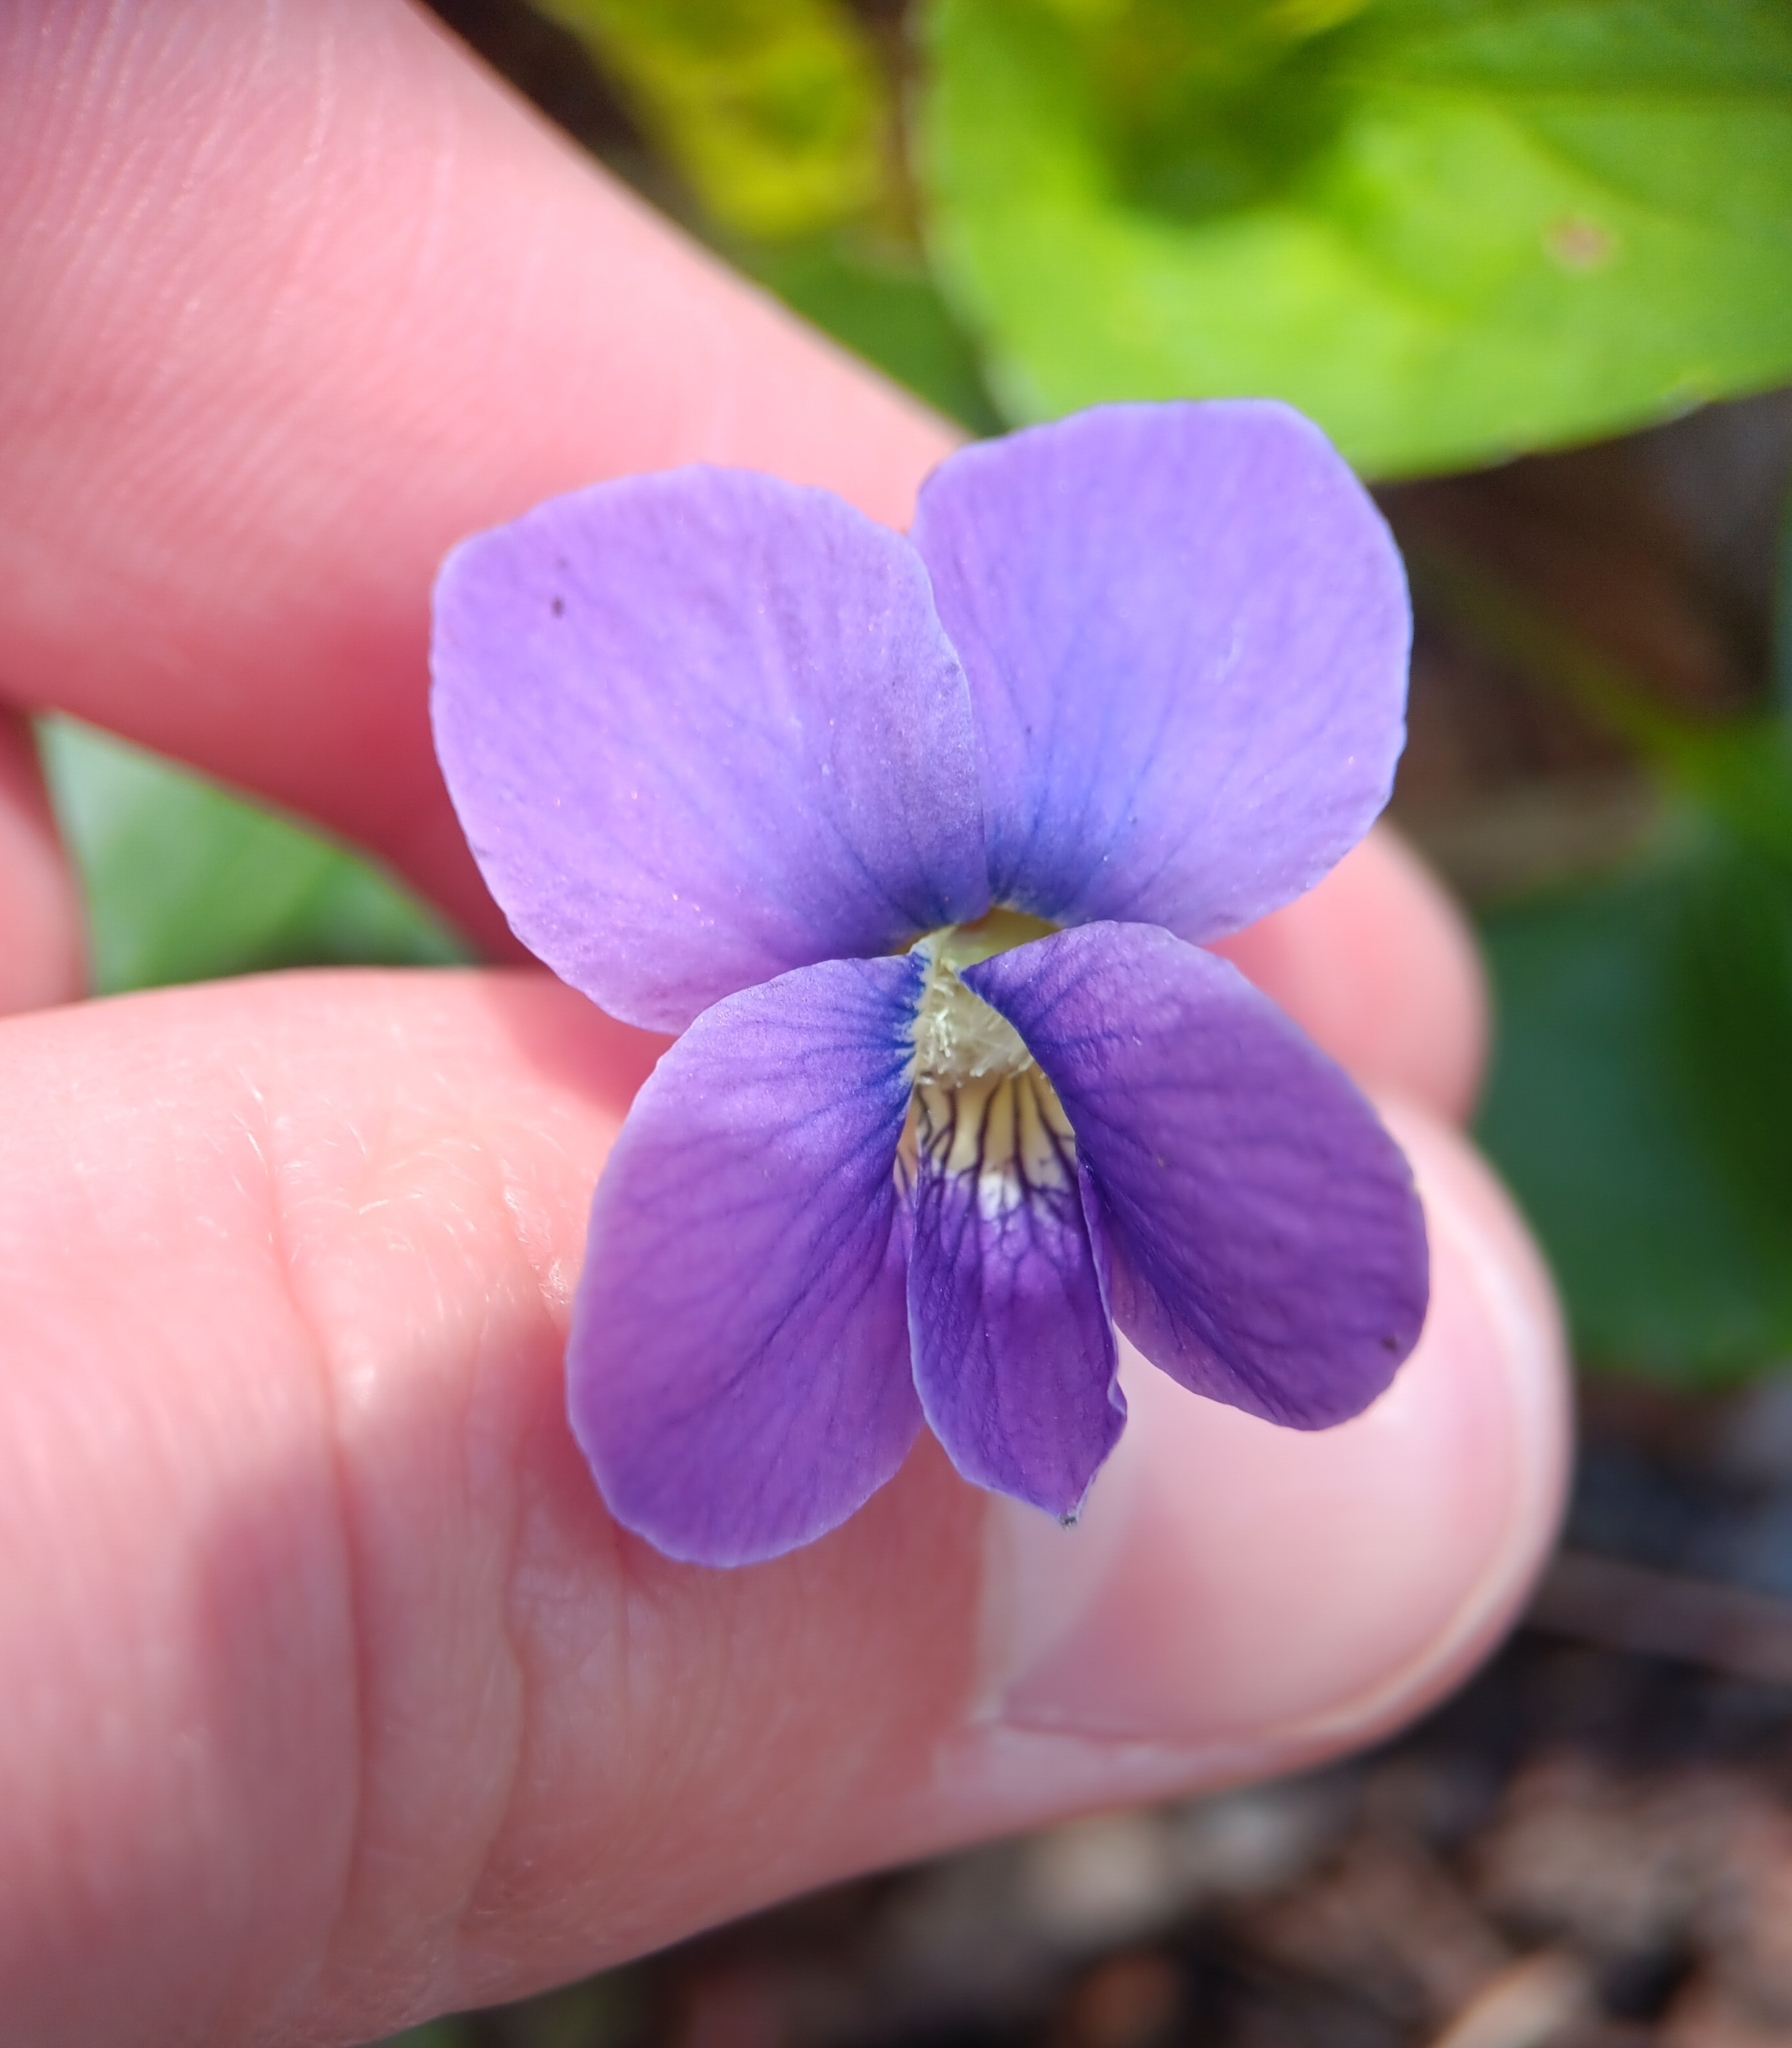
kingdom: Plantae
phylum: Tracheophyta
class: Magnoliopsida
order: Malpighiales
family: Violaceae
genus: Viola
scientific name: Viola sororia
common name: Dooryard violet
